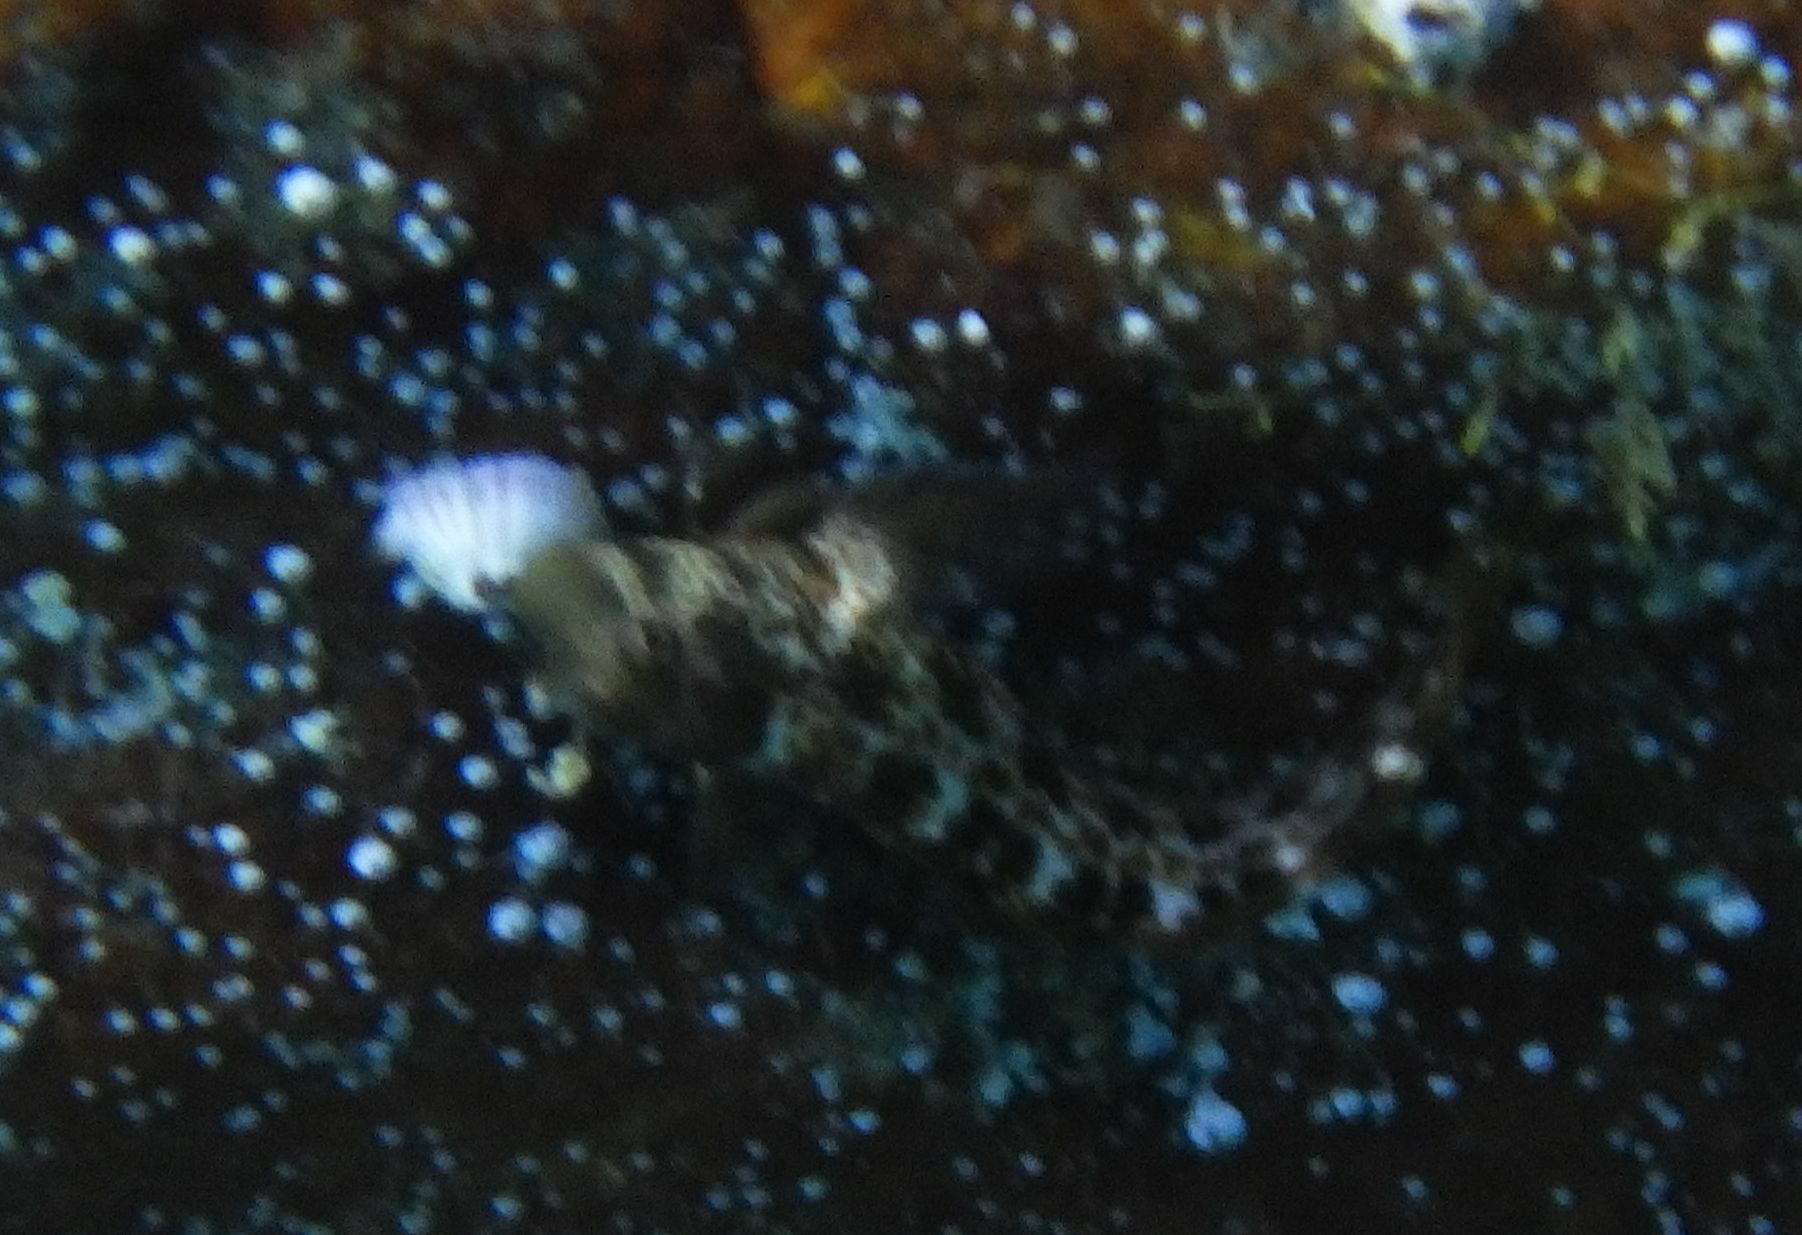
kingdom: Animalia
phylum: Chordata
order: Perciformes
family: Blenniidae
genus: Microlipophrys
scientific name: Microlipophrys canevae
